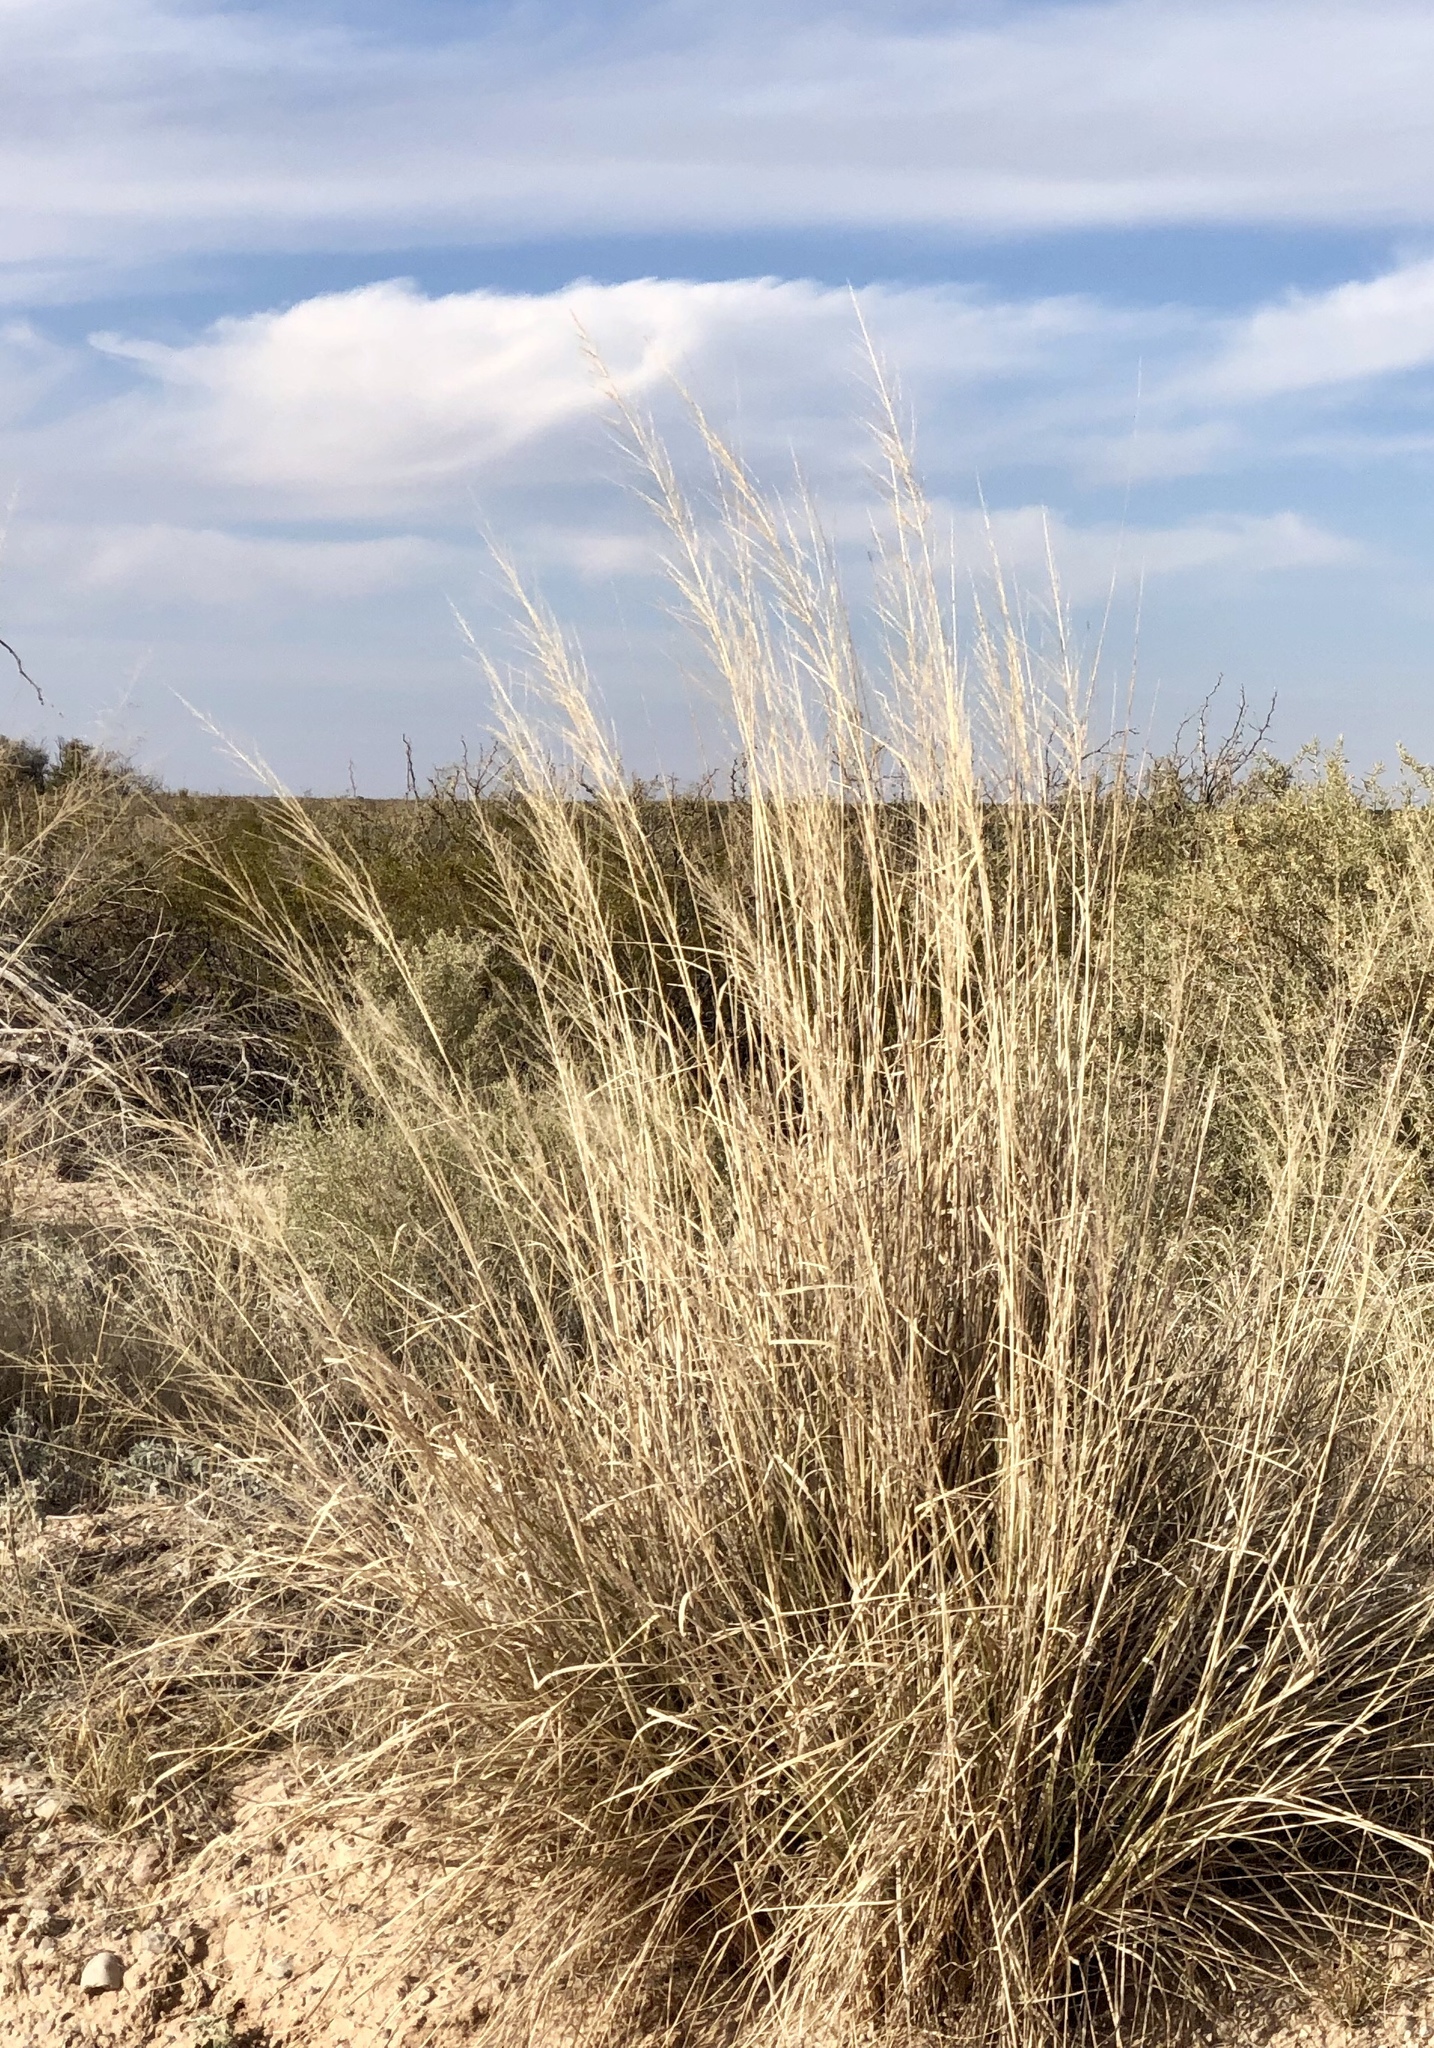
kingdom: Plantae
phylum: Tracheophyta
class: Liliopsida
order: Poales
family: Poaceae
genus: Sporobolus
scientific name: Sporobolus wrightii
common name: Big alkali sacaton
